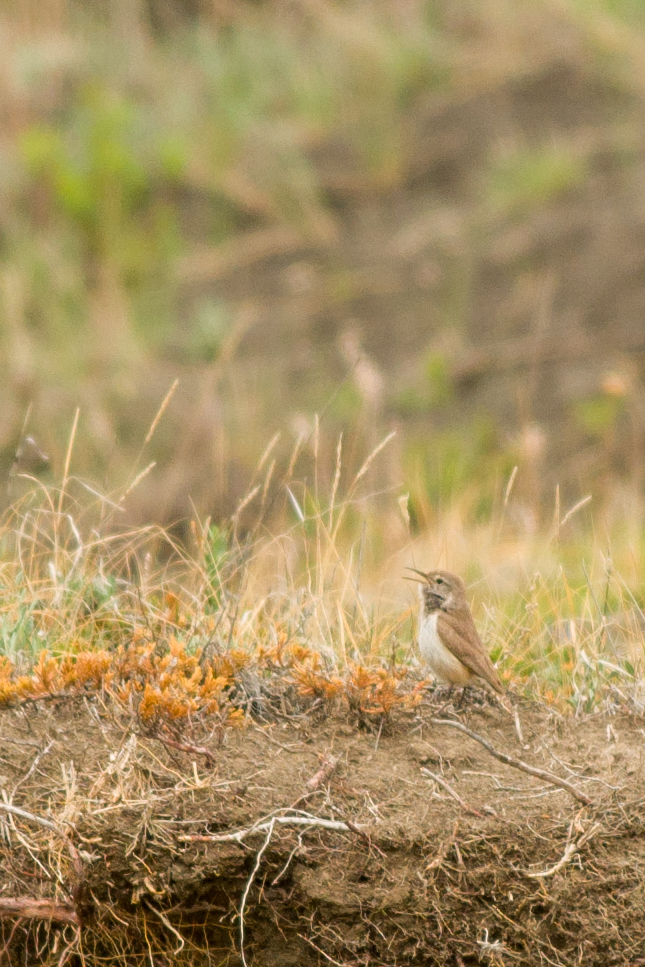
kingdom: Animalia
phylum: Chordata
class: Aves
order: Passeriformes
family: Troglodytidae
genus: Salpinctes
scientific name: Salpinctes obsoletus
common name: Rock wren
